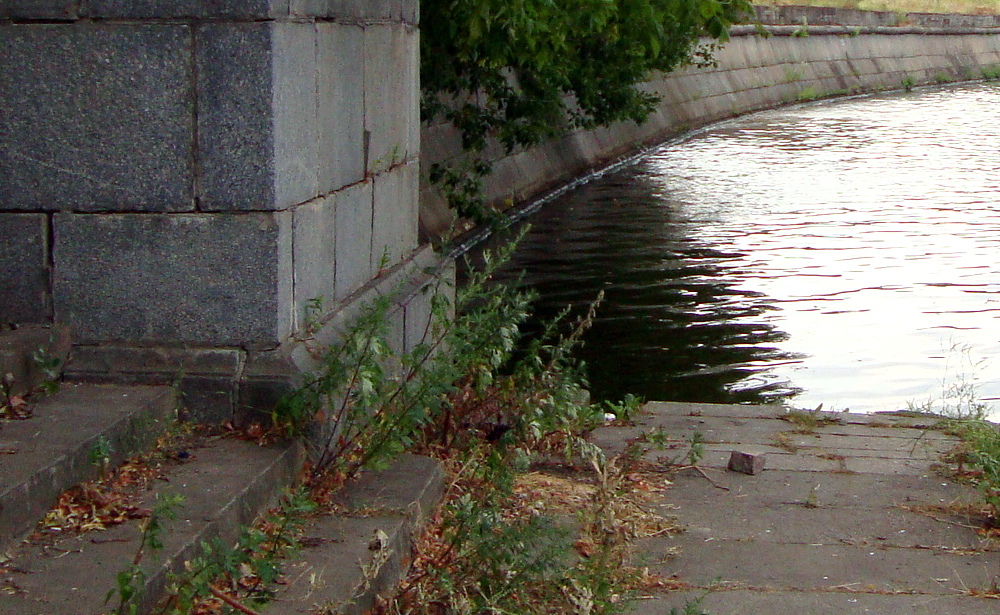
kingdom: Plantae
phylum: Tracheophyta
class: Magnoliopsida
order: Asterales
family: Asteraceae
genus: Artemisia
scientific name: Artemisia vulgaris
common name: Mugwort
